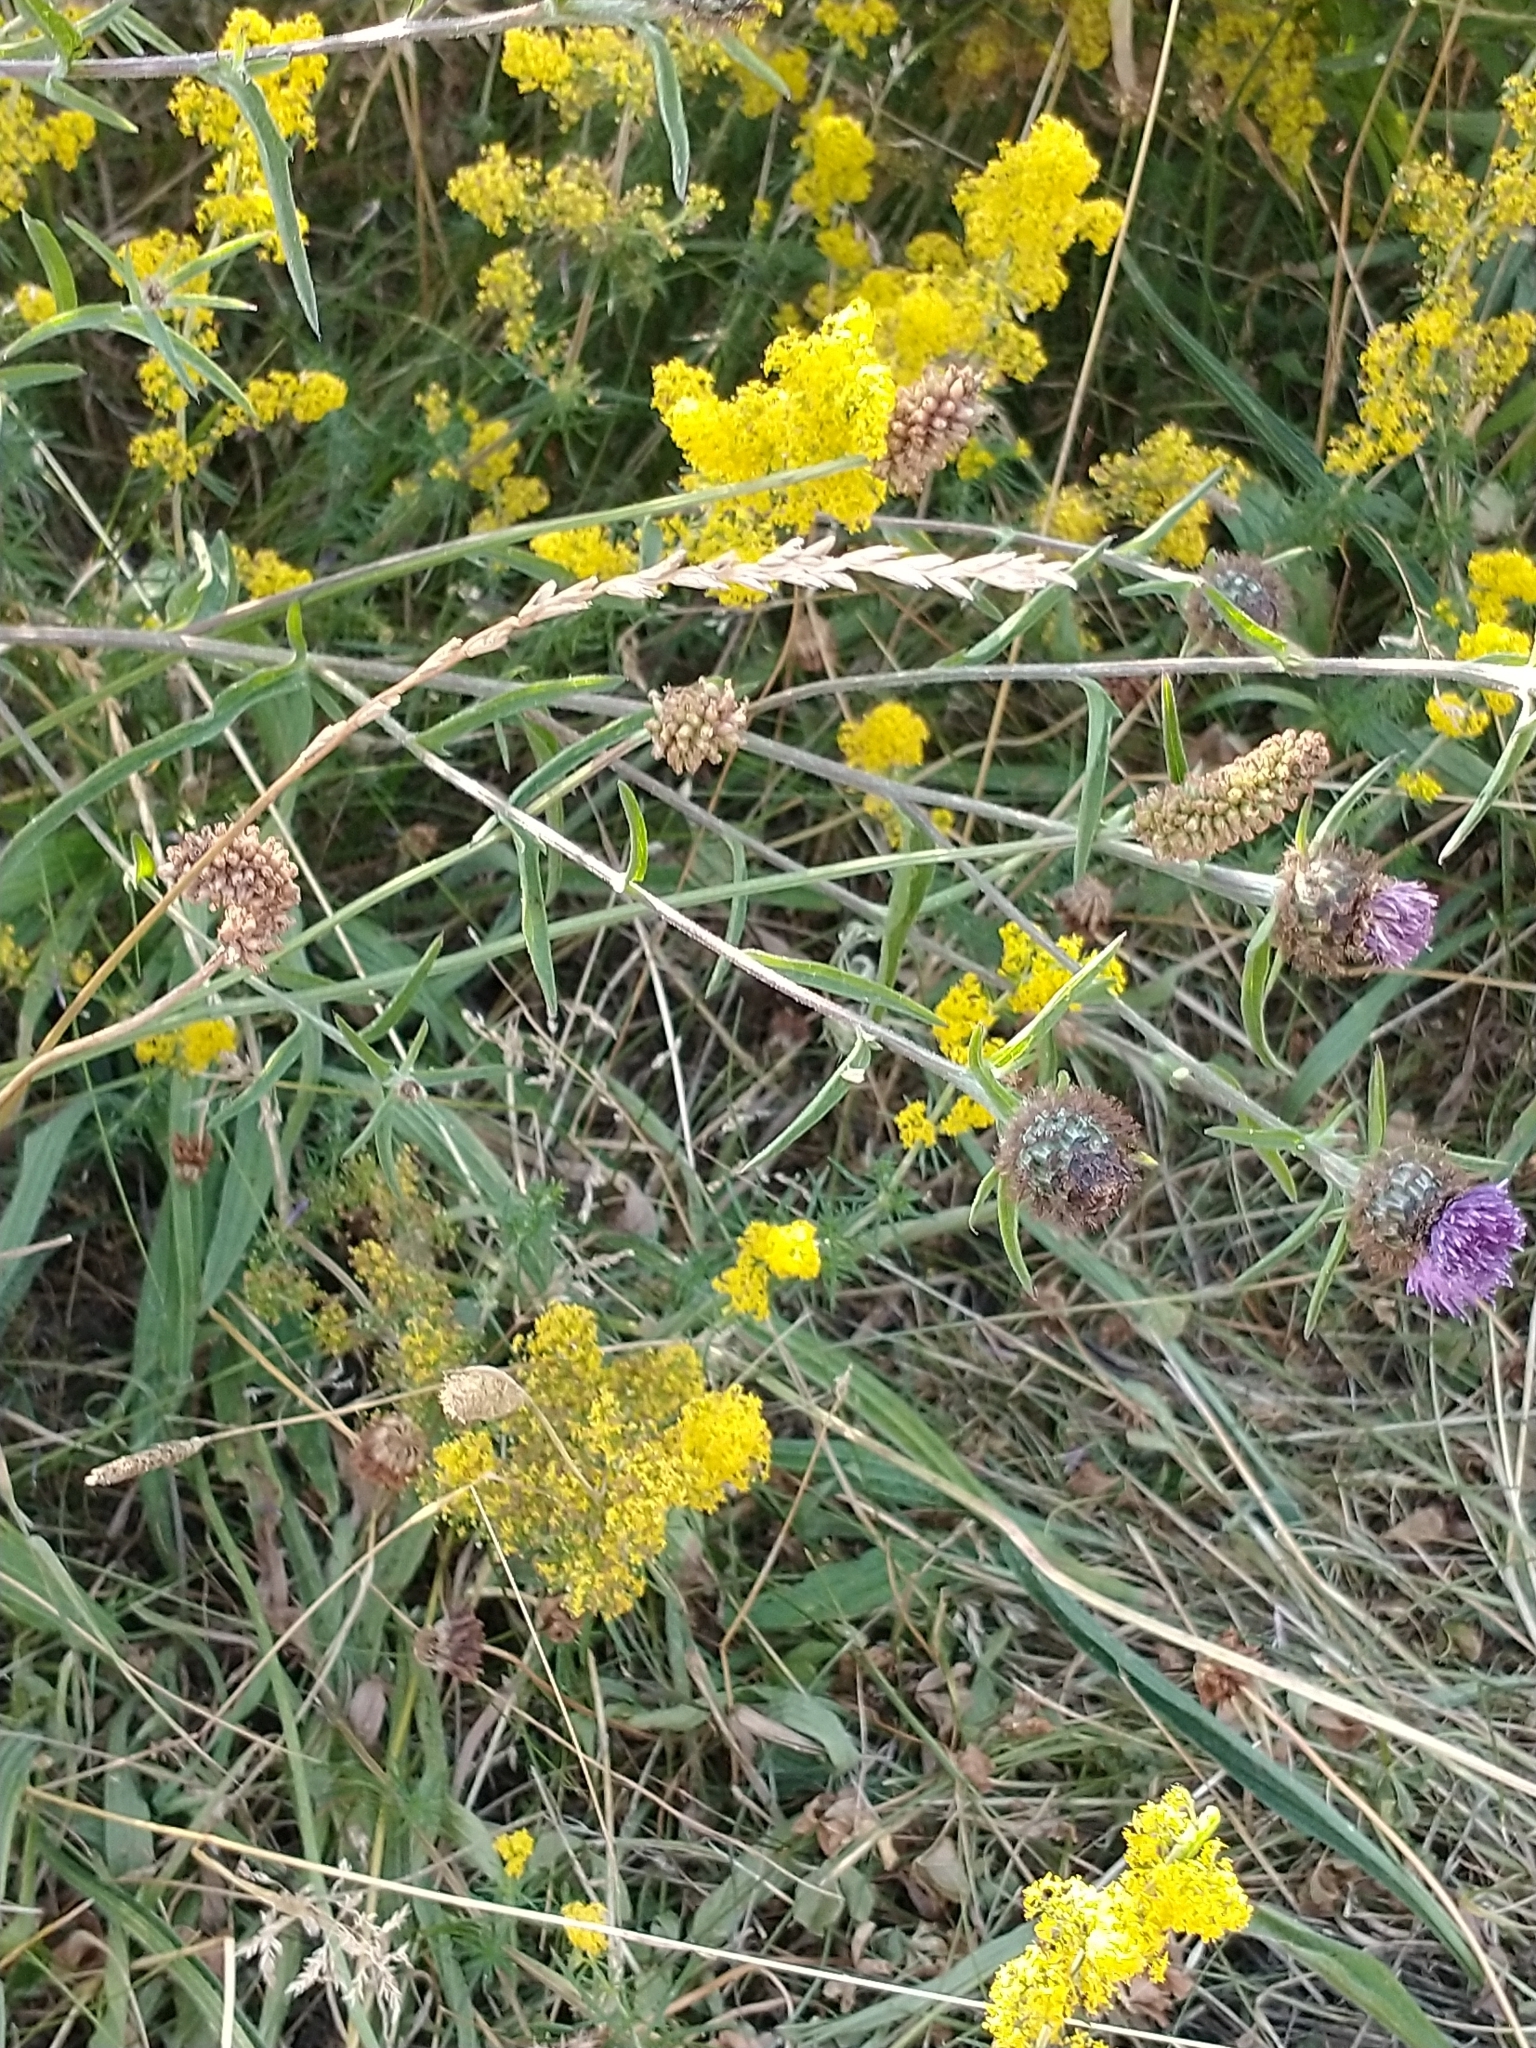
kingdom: Plantae
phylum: Tracheophyta
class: Magnoliopsida
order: Gentianales
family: Rubiaceae
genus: Galium
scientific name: Galium verum
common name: Lady's bedstraw
